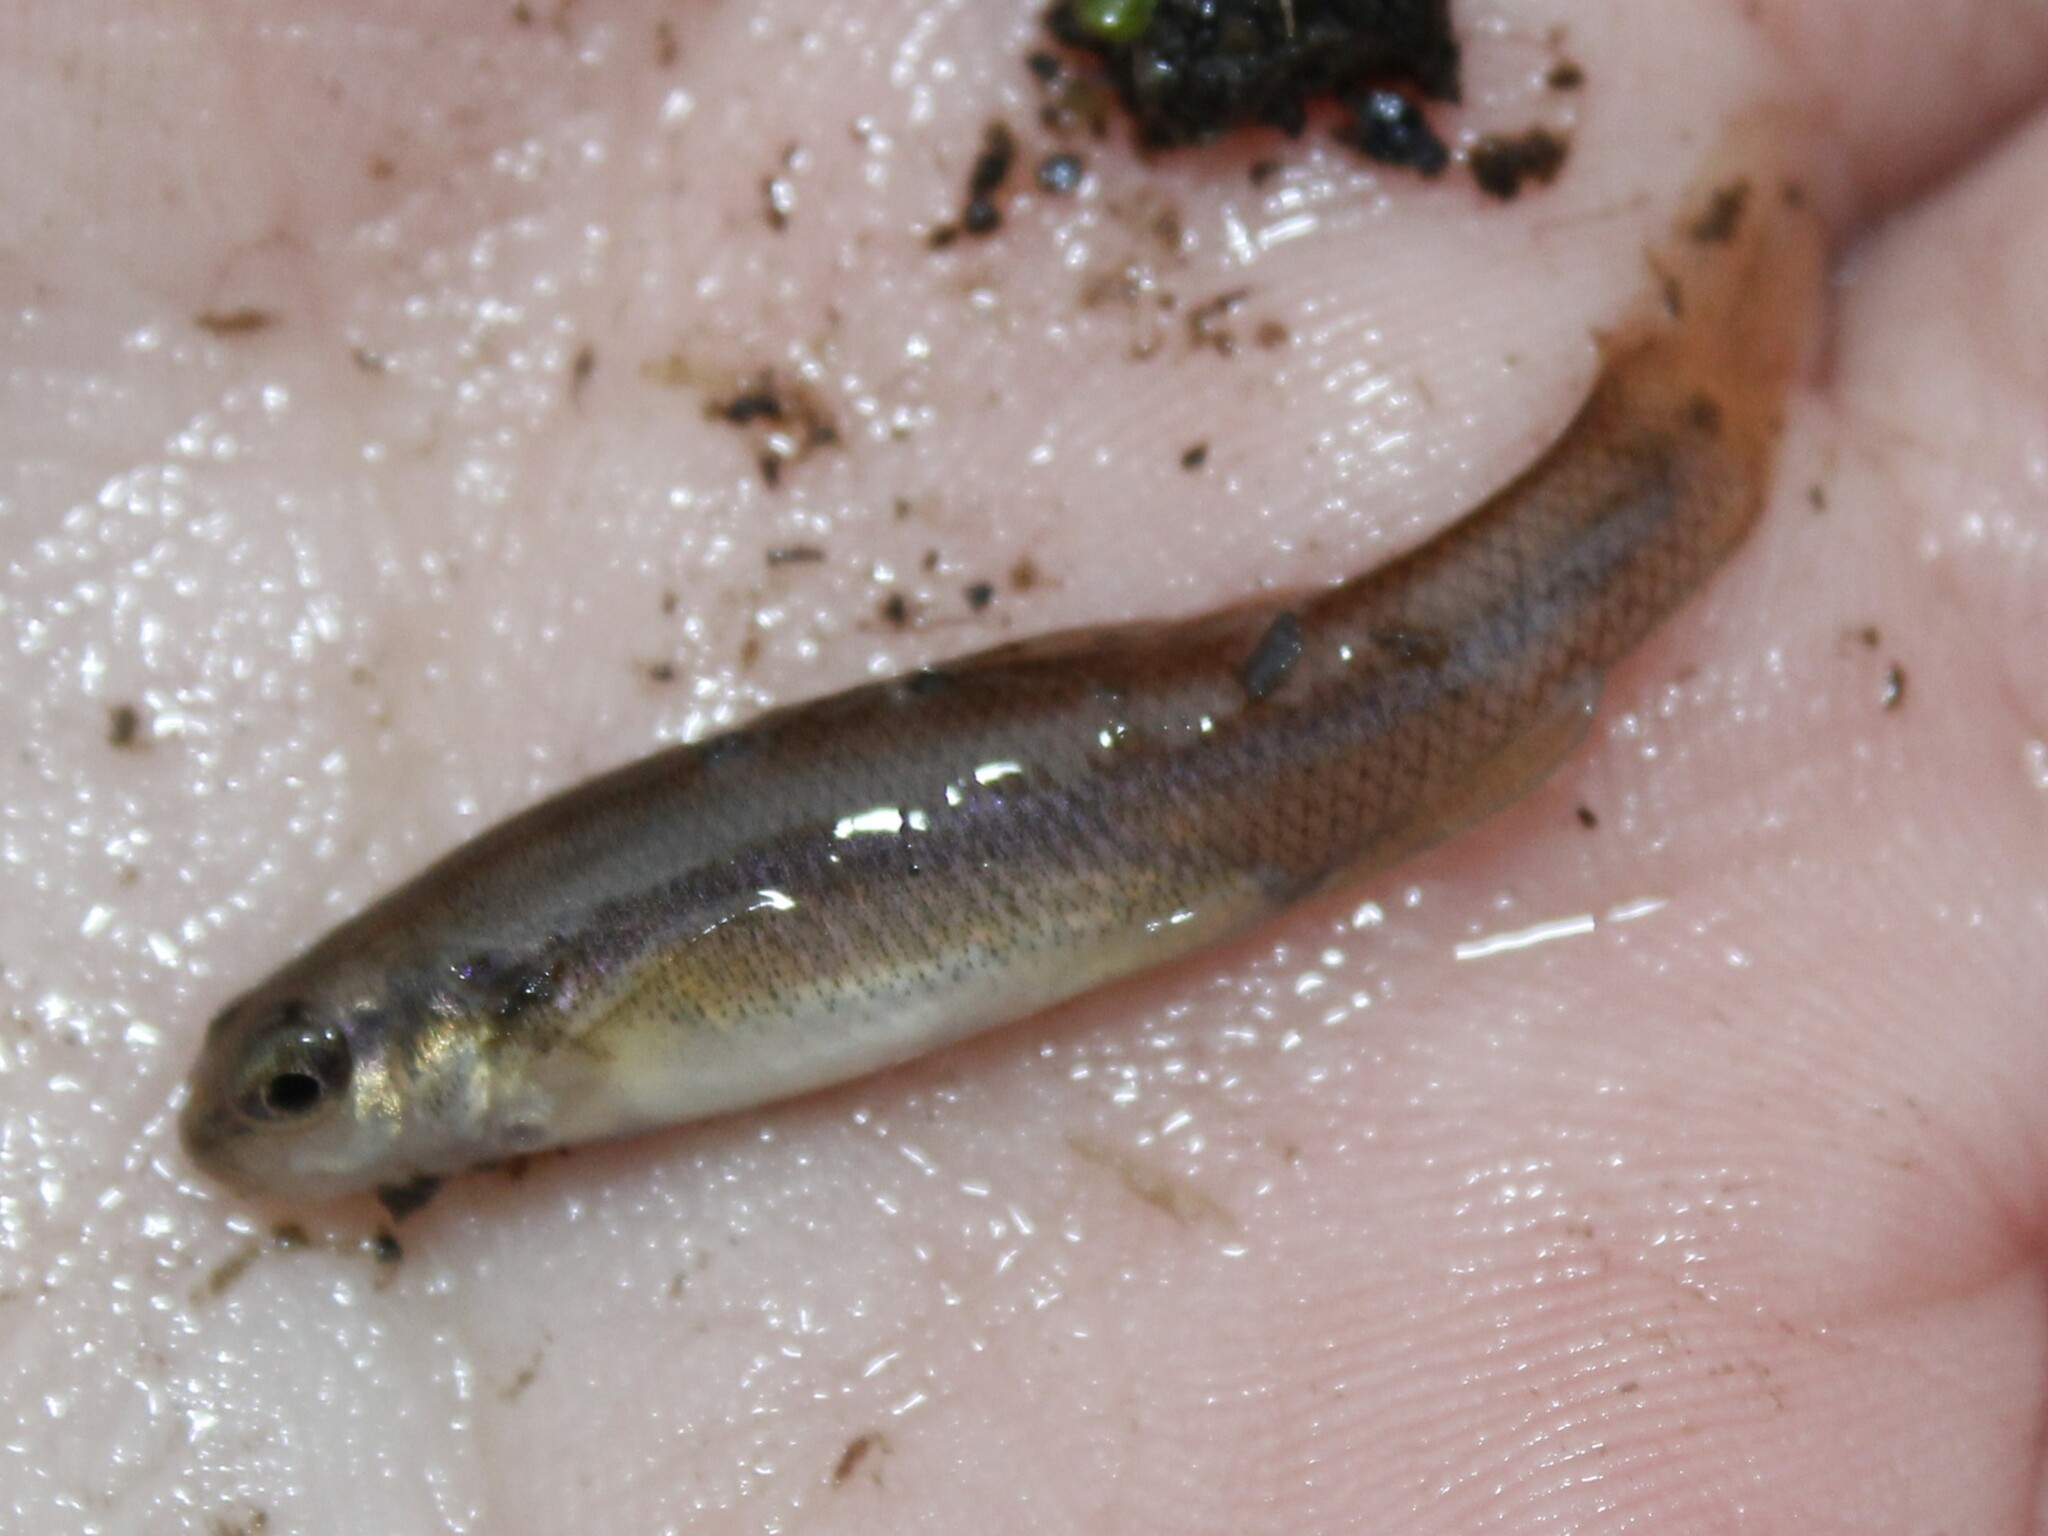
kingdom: Animalia
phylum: Chordata
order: Cypriniformes
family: Cyprinidae
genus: Pimephales
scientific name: Pimephales notatus
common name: Bluntnose minnow
